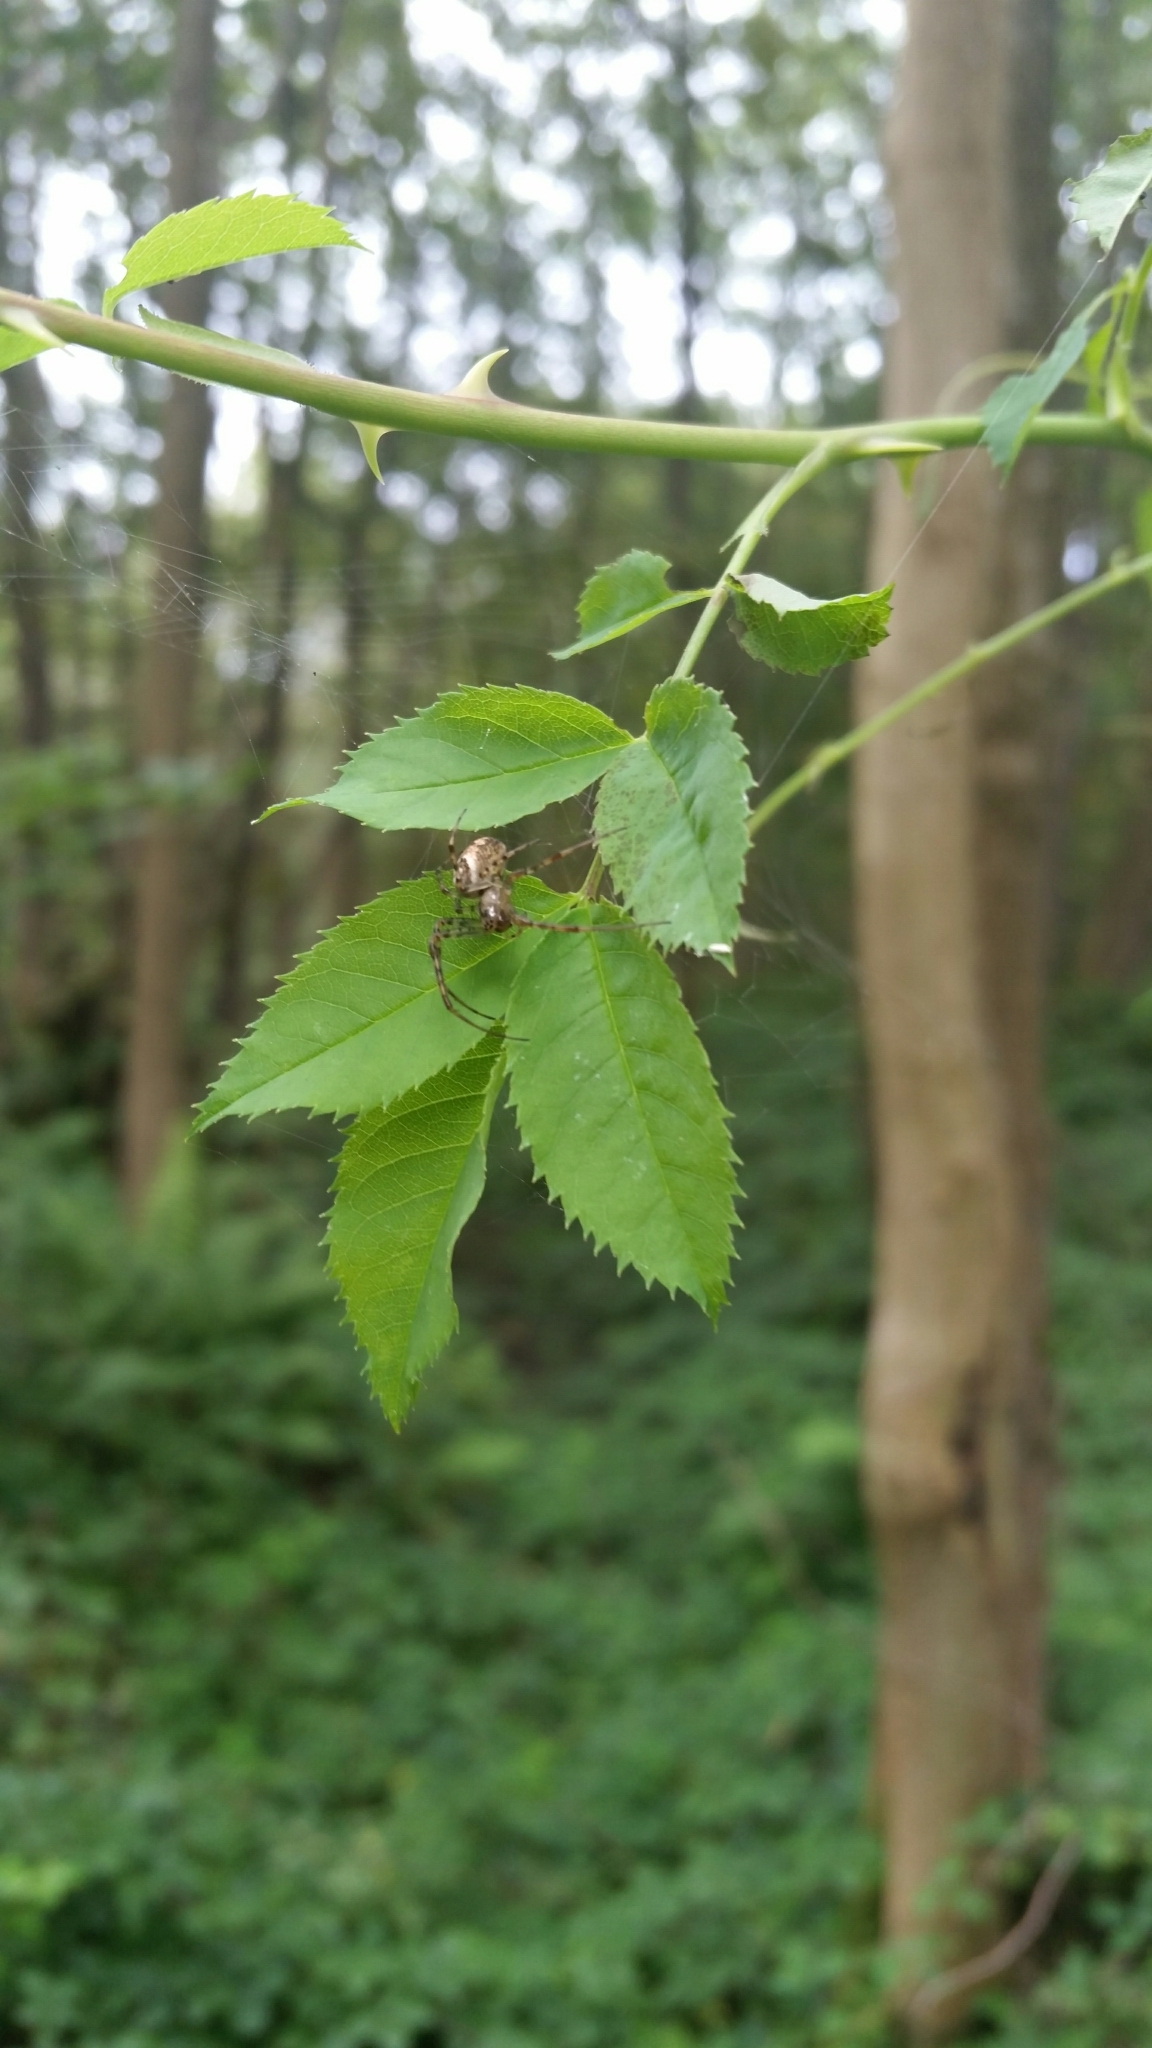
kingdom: Animalia
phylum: Arthropoda
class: Arachnida
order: Araneae
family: Tetragnathidae
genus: Metellina
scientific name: Metellina segmentata
